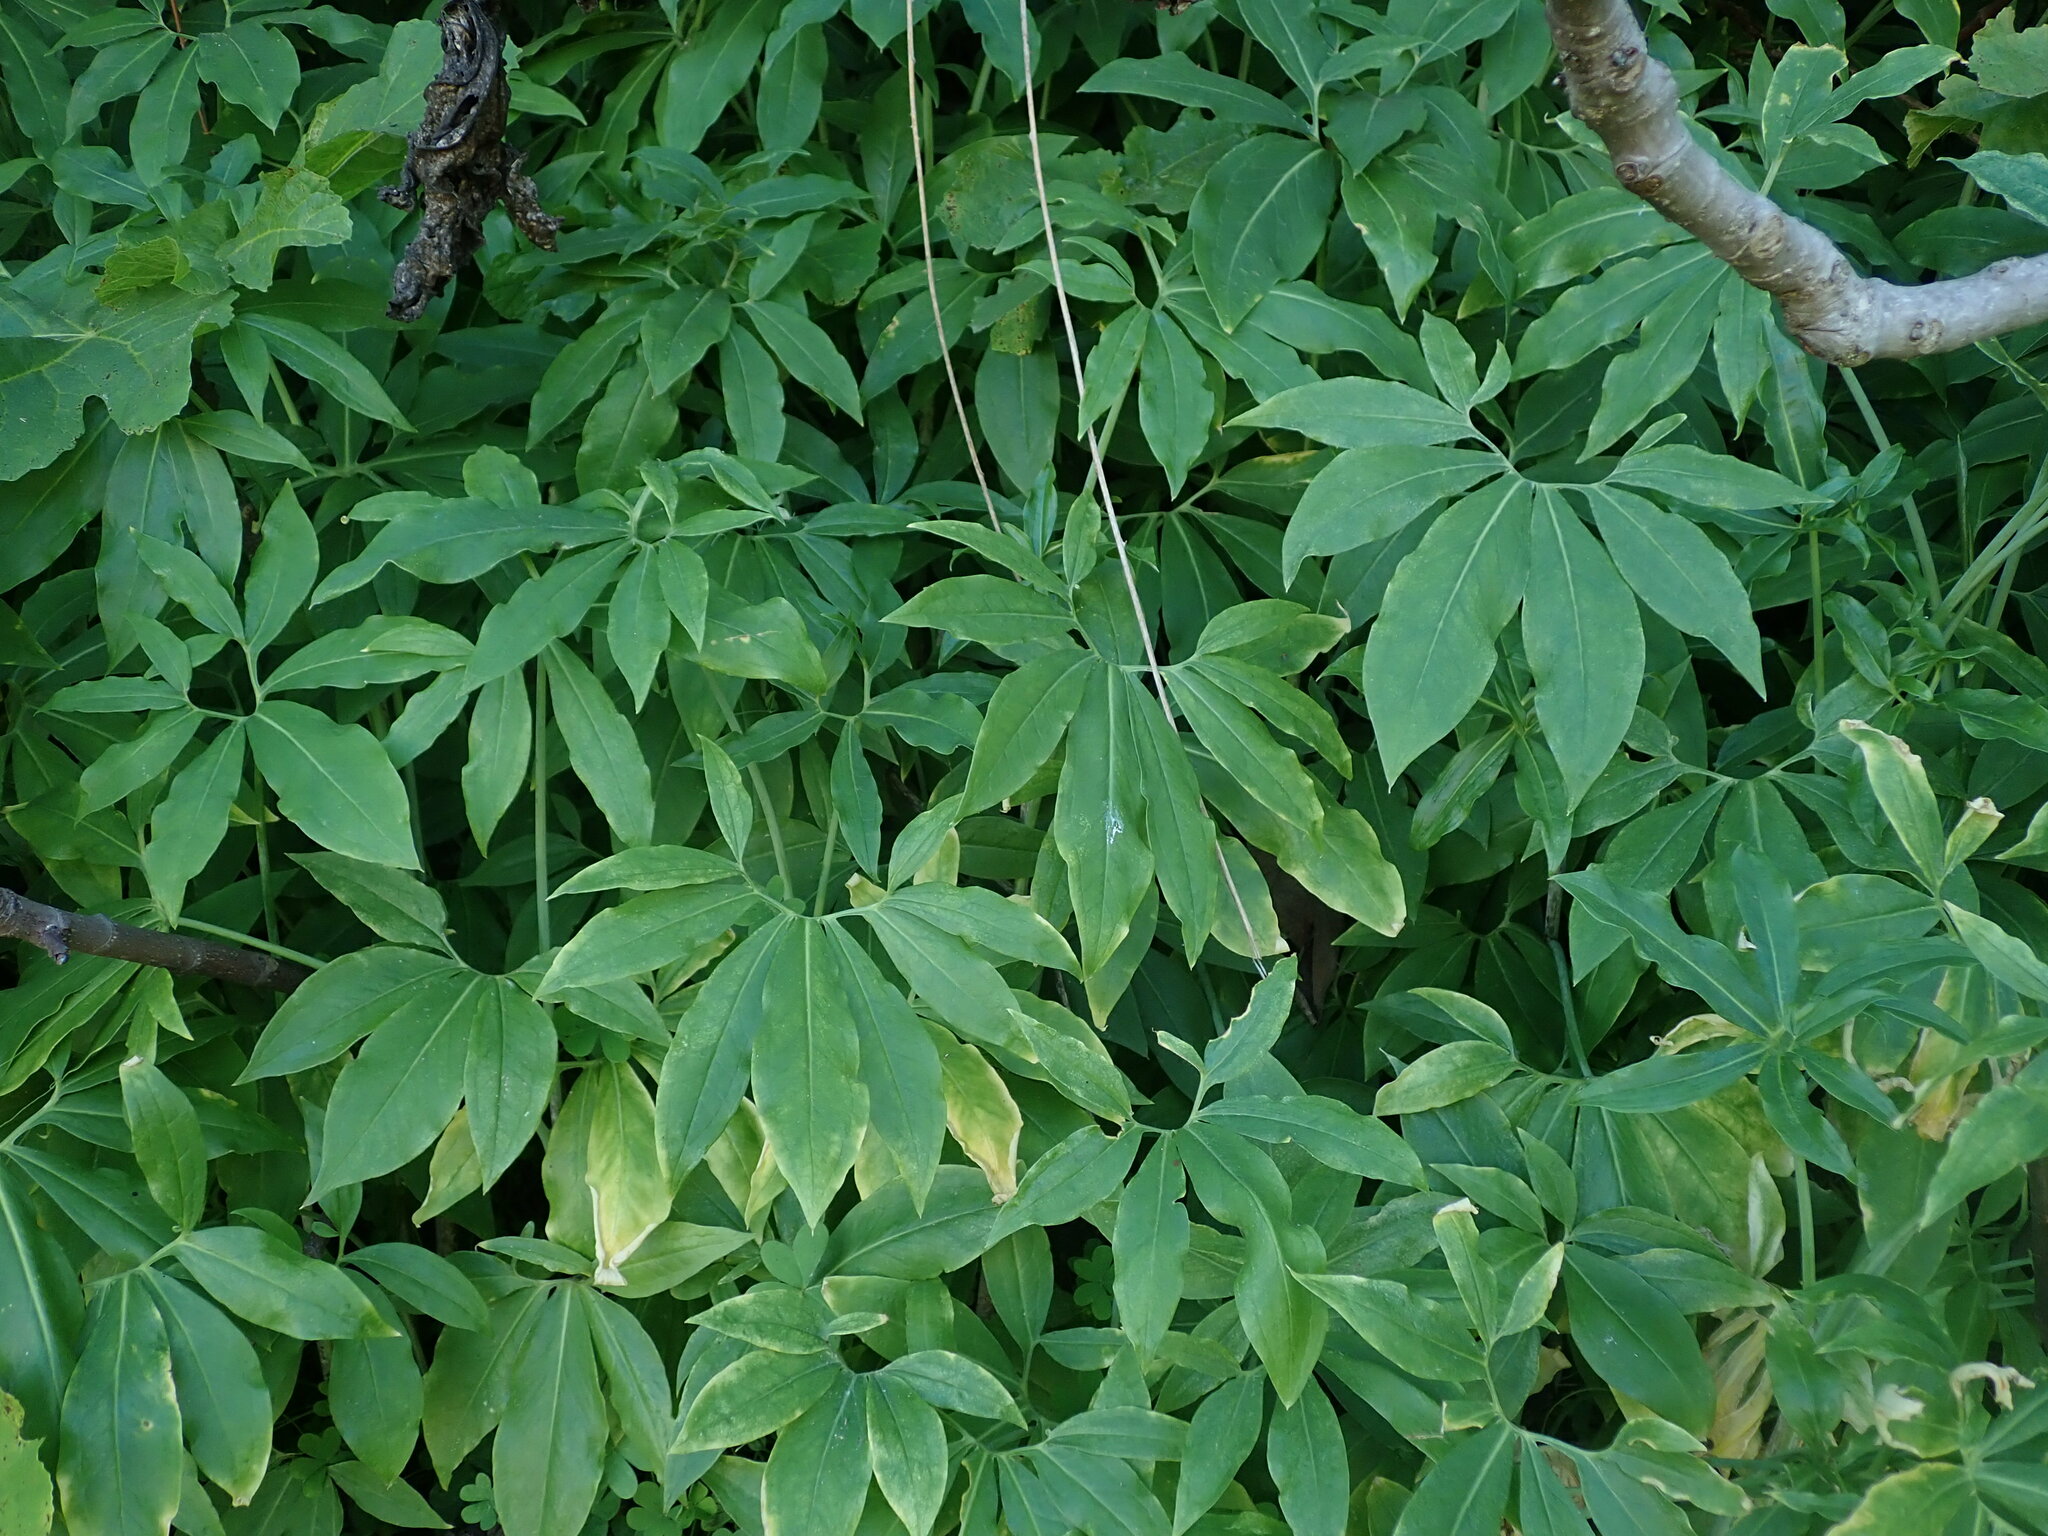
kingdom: Plantae
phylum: Tracheophyta
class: Liliopsida
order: Alismatales
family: Araceae
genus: Dracunculus
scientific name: Dracunculus canariensis
